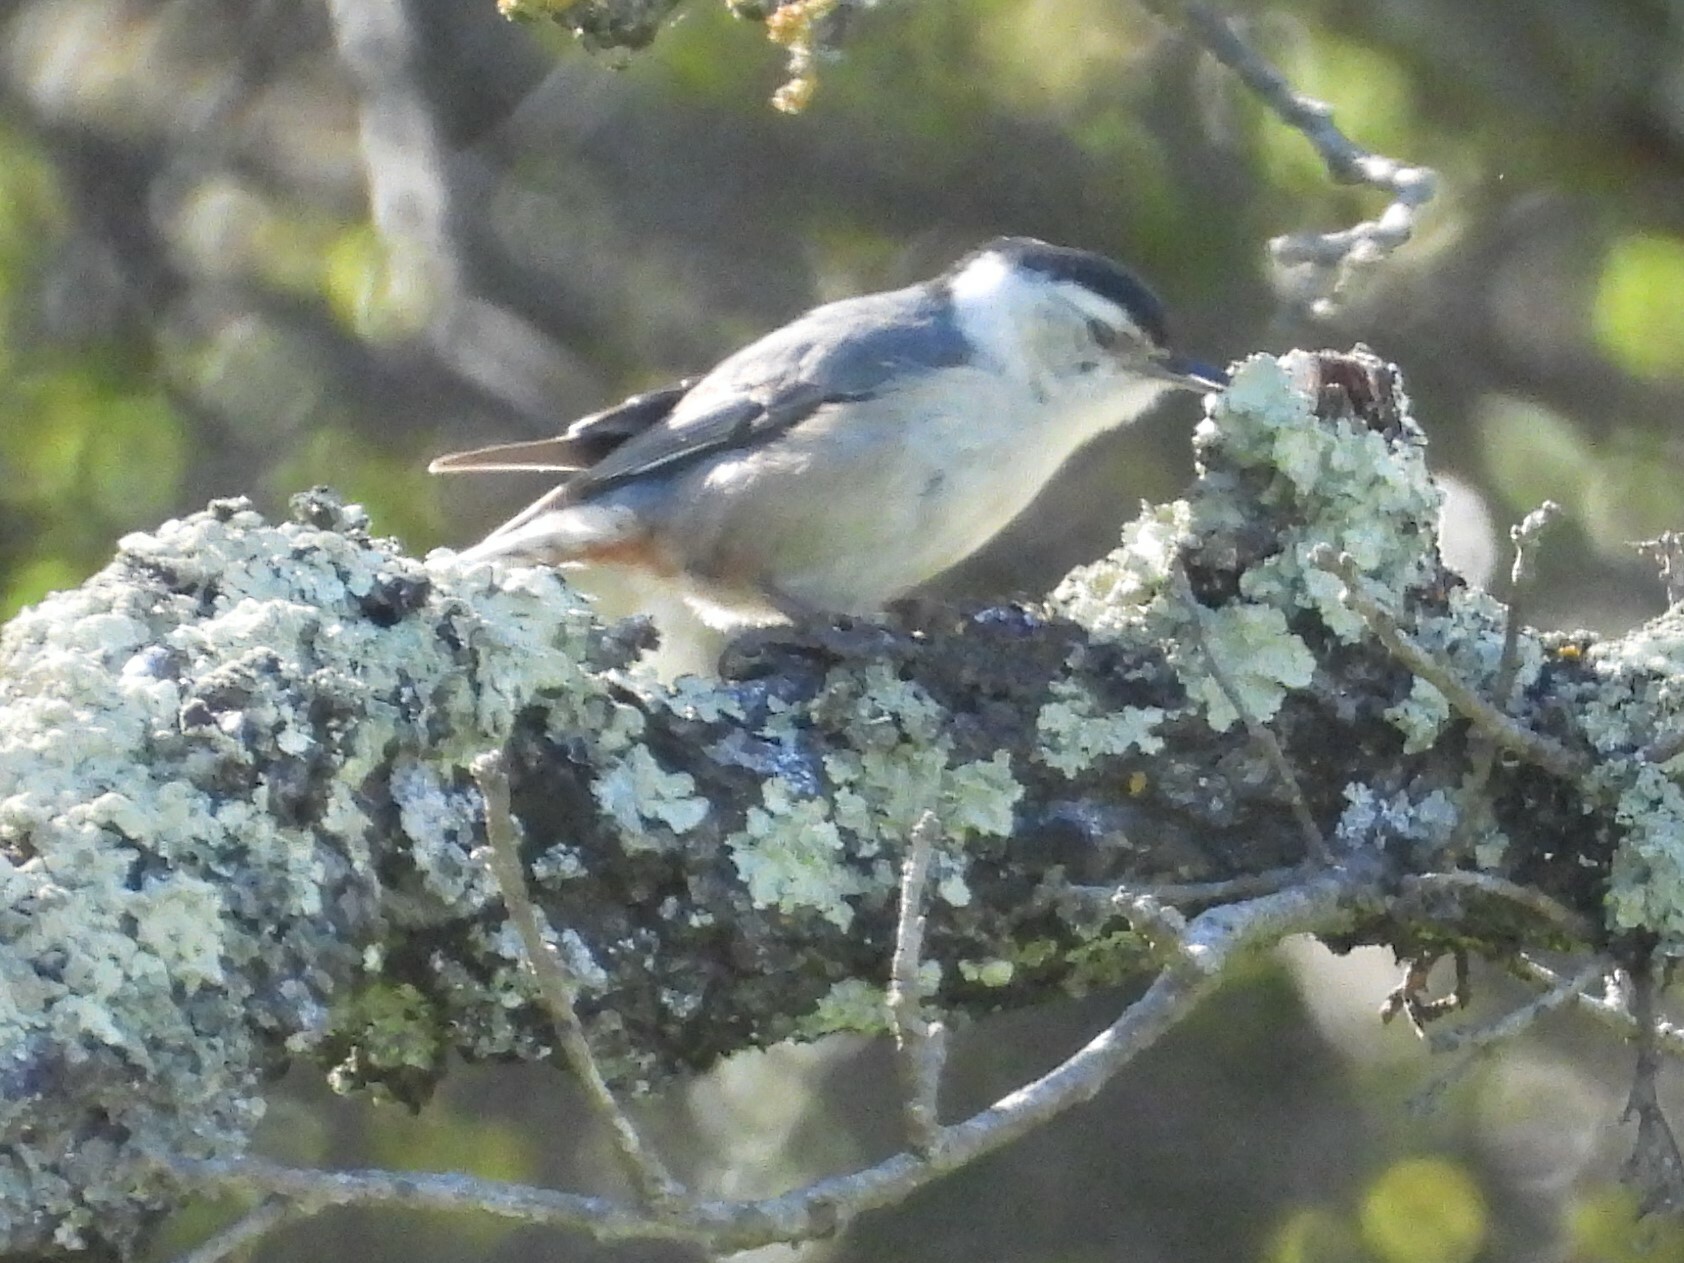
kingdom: Animalia
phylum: Chordata
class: Aves
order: Passeriformes
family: Sittidae
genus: Sitta
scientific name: Sitta carolinensis
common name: White-breasted nuthatch
